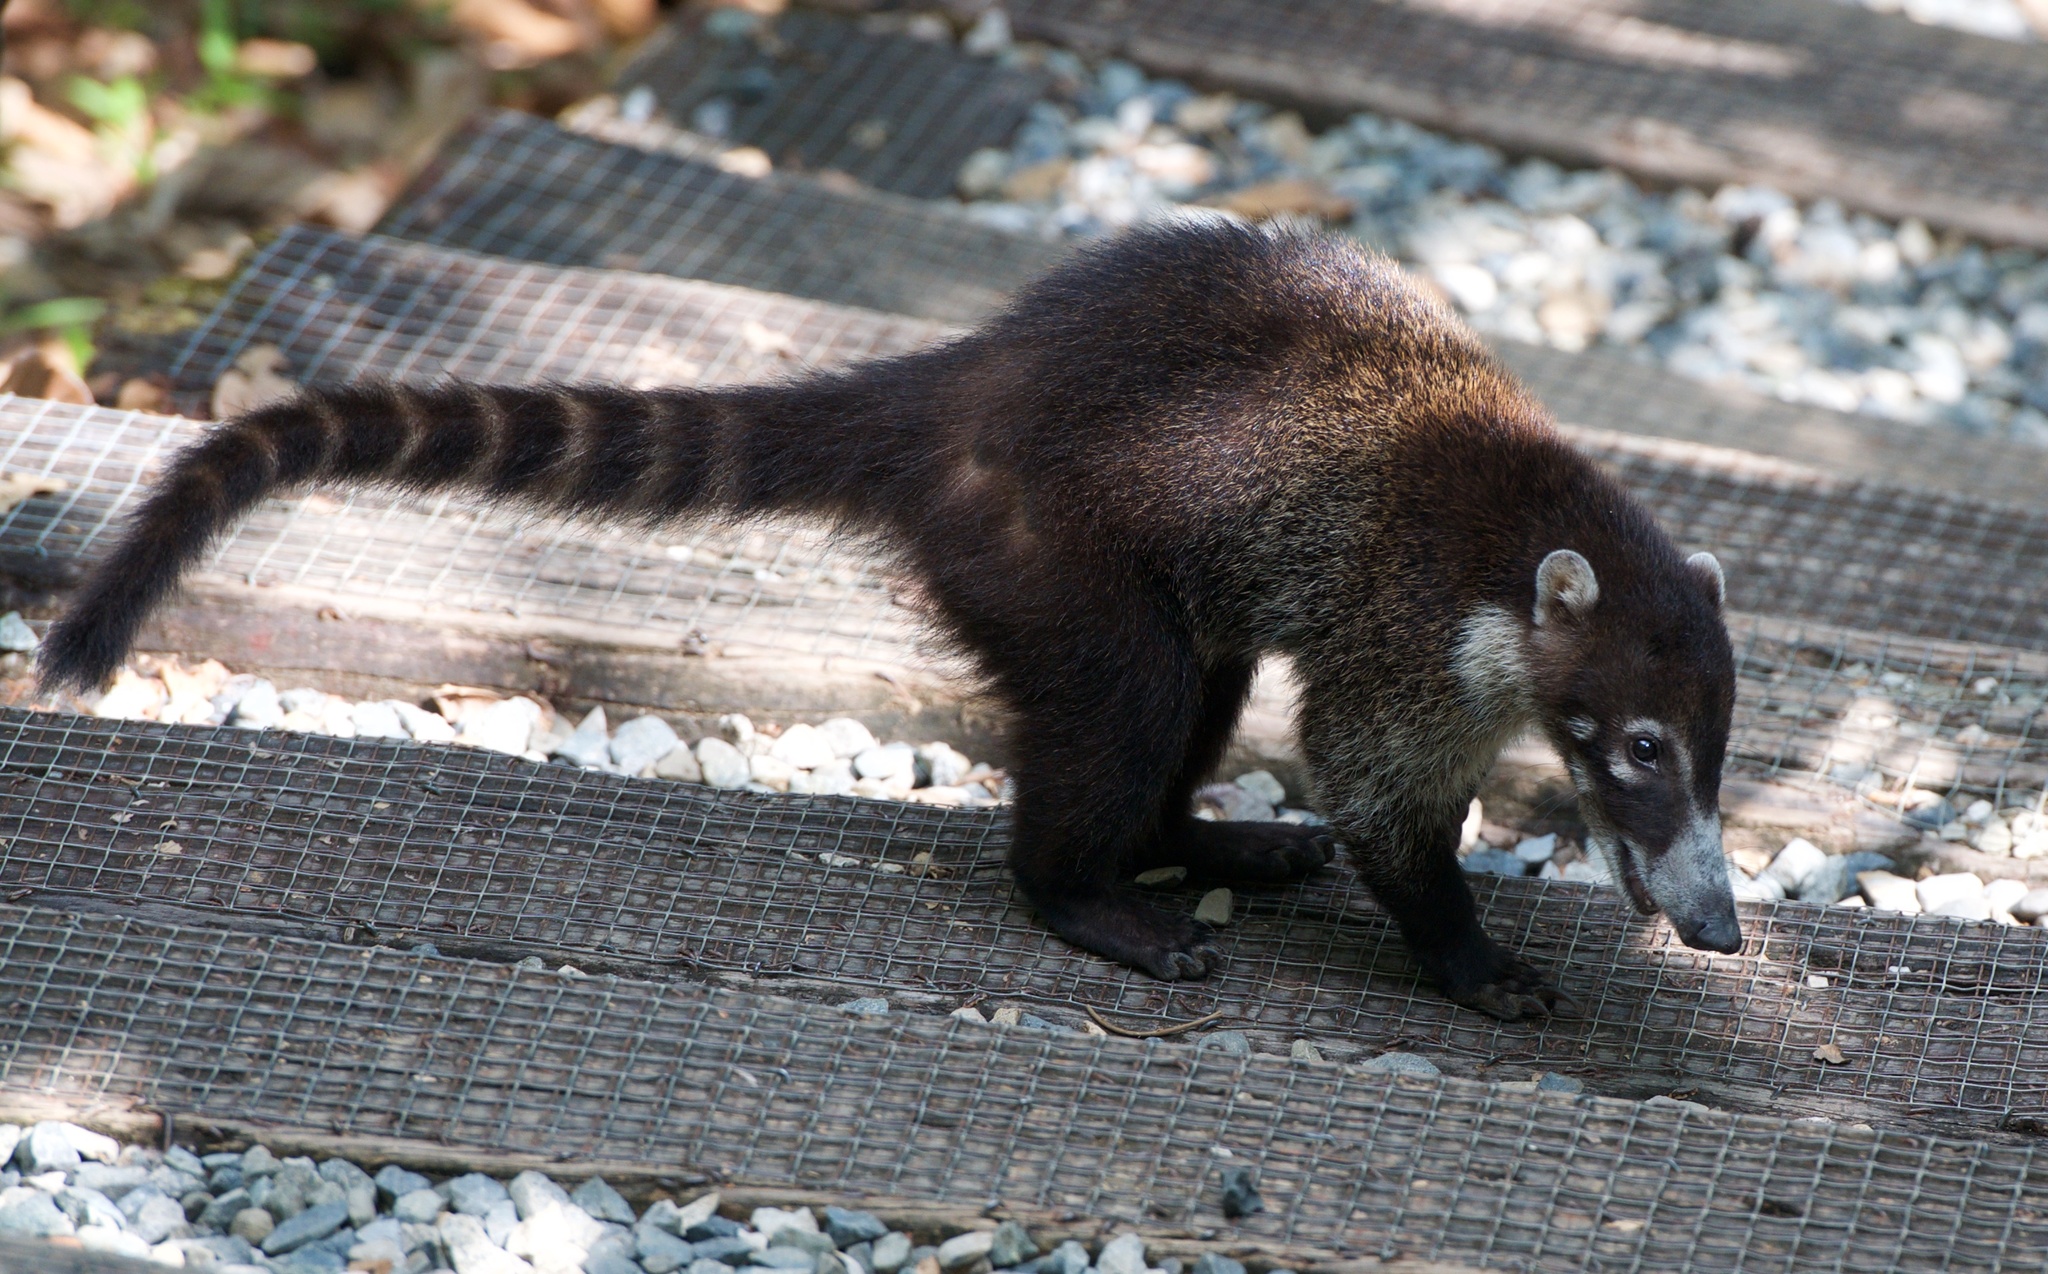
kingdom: Animalia
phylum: Chordata
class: Mammalia
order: Carnivora
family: Procyonidae
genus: Nasua
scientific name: Nasua narica
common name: White-nosed coati
